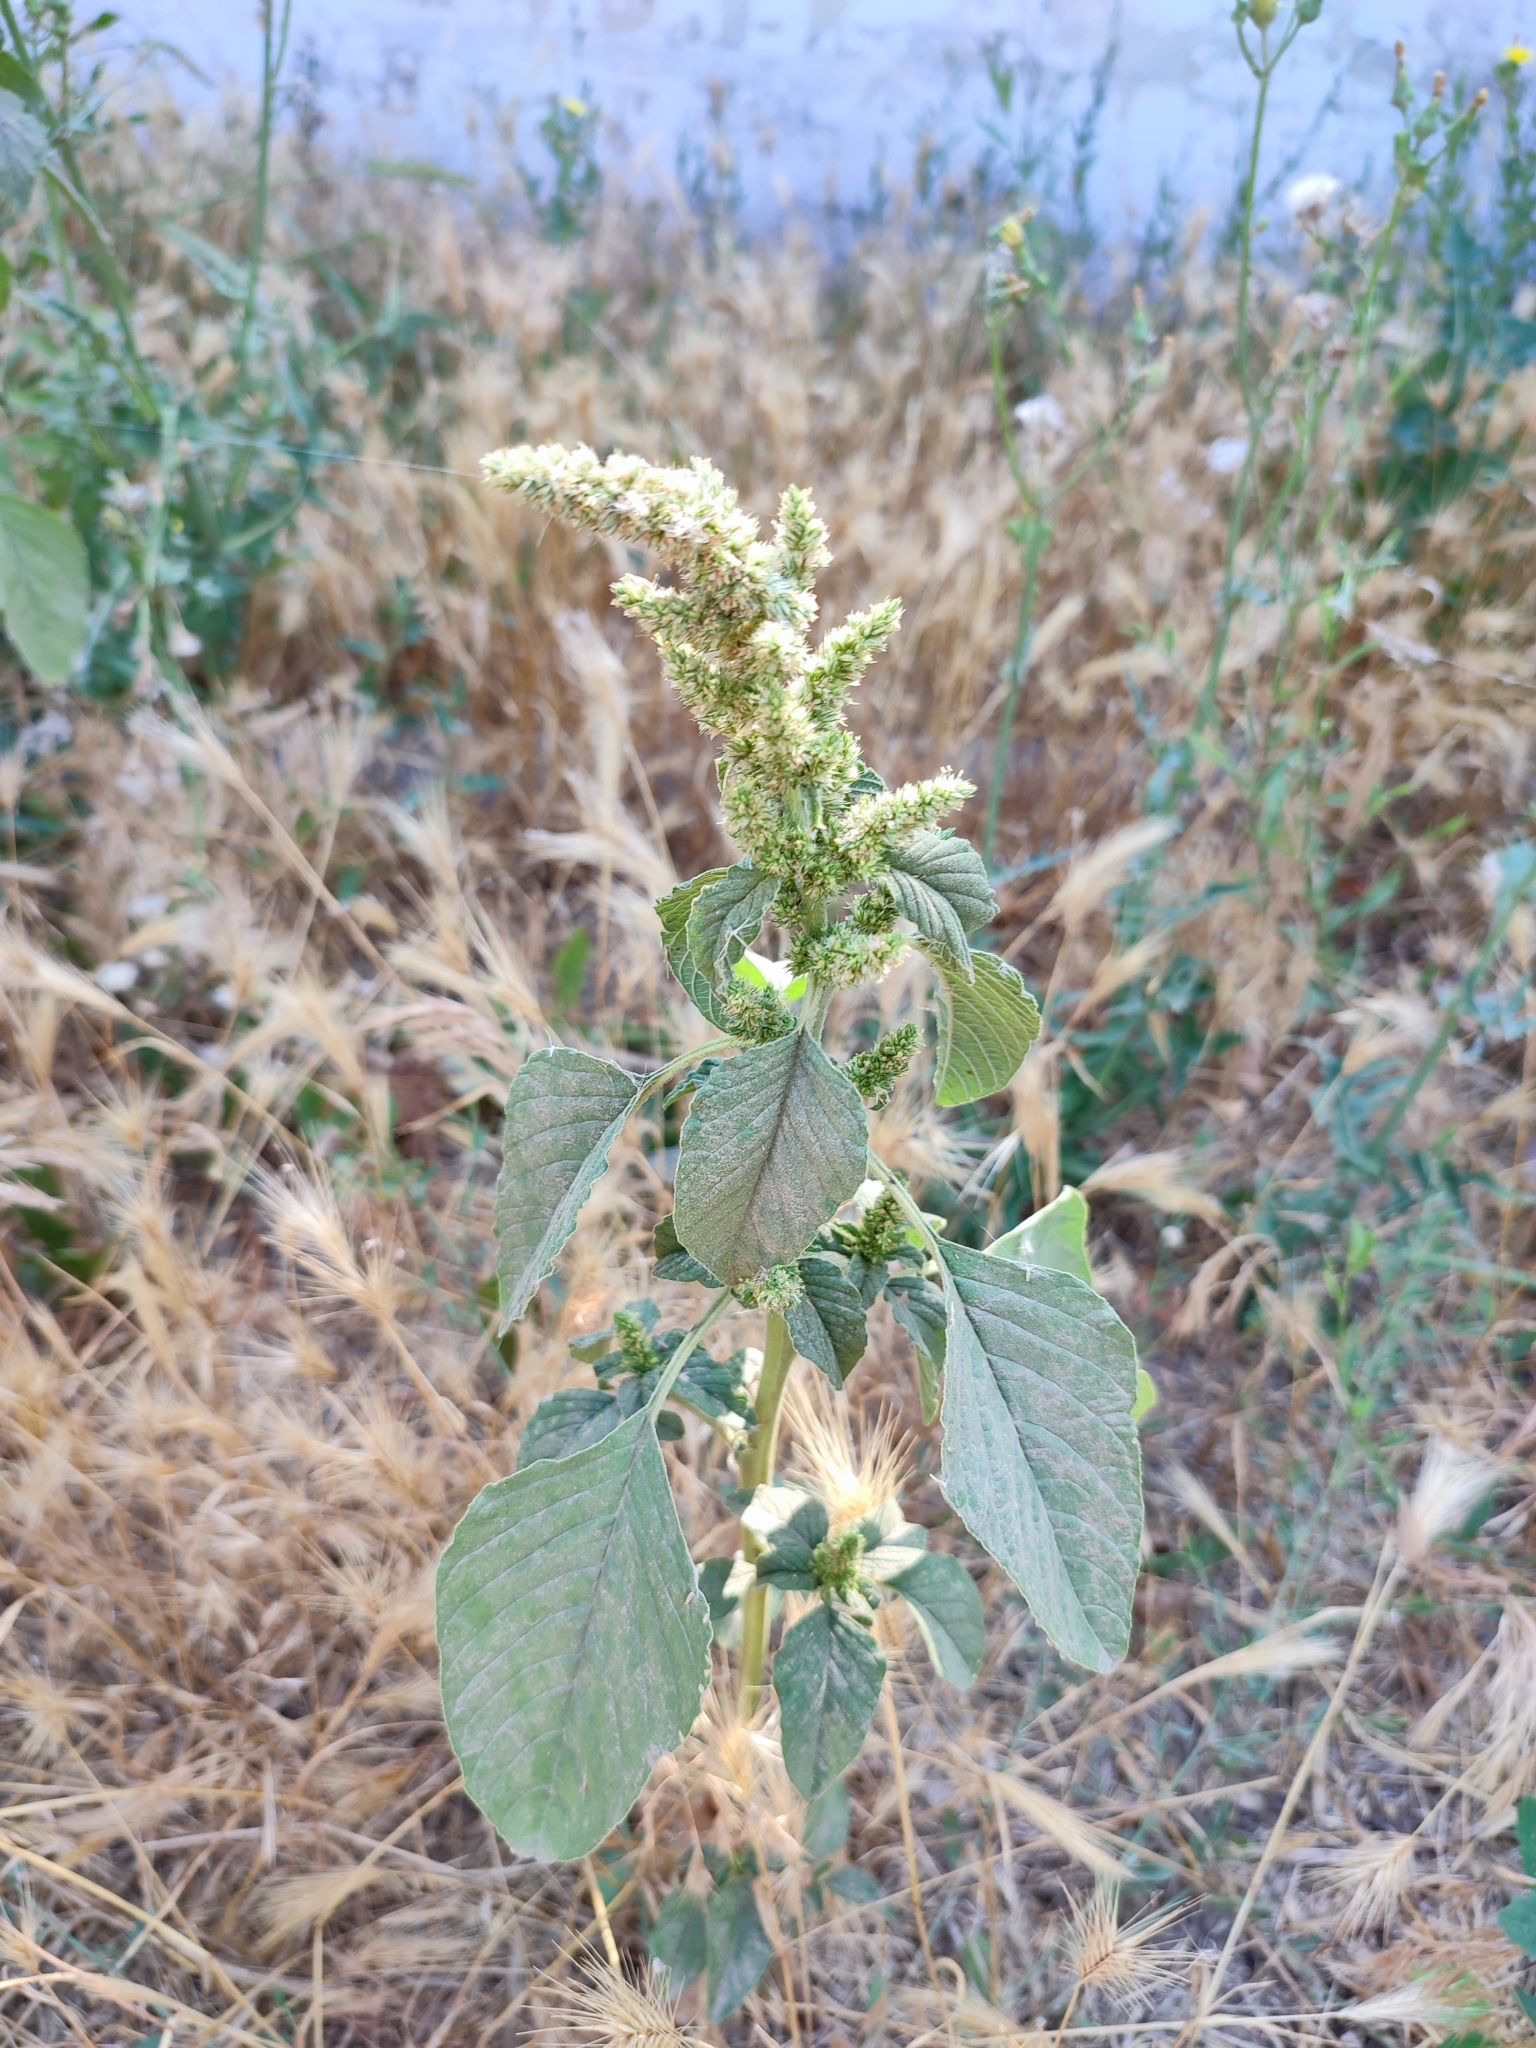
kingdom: Plantae
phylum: Tracheophyta
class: Magnoliopsida
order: Caryophyllales
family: Amaranthaceae
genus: Amaranthus
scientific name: Amaranthus retroflexus
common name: Redroot amaranth
